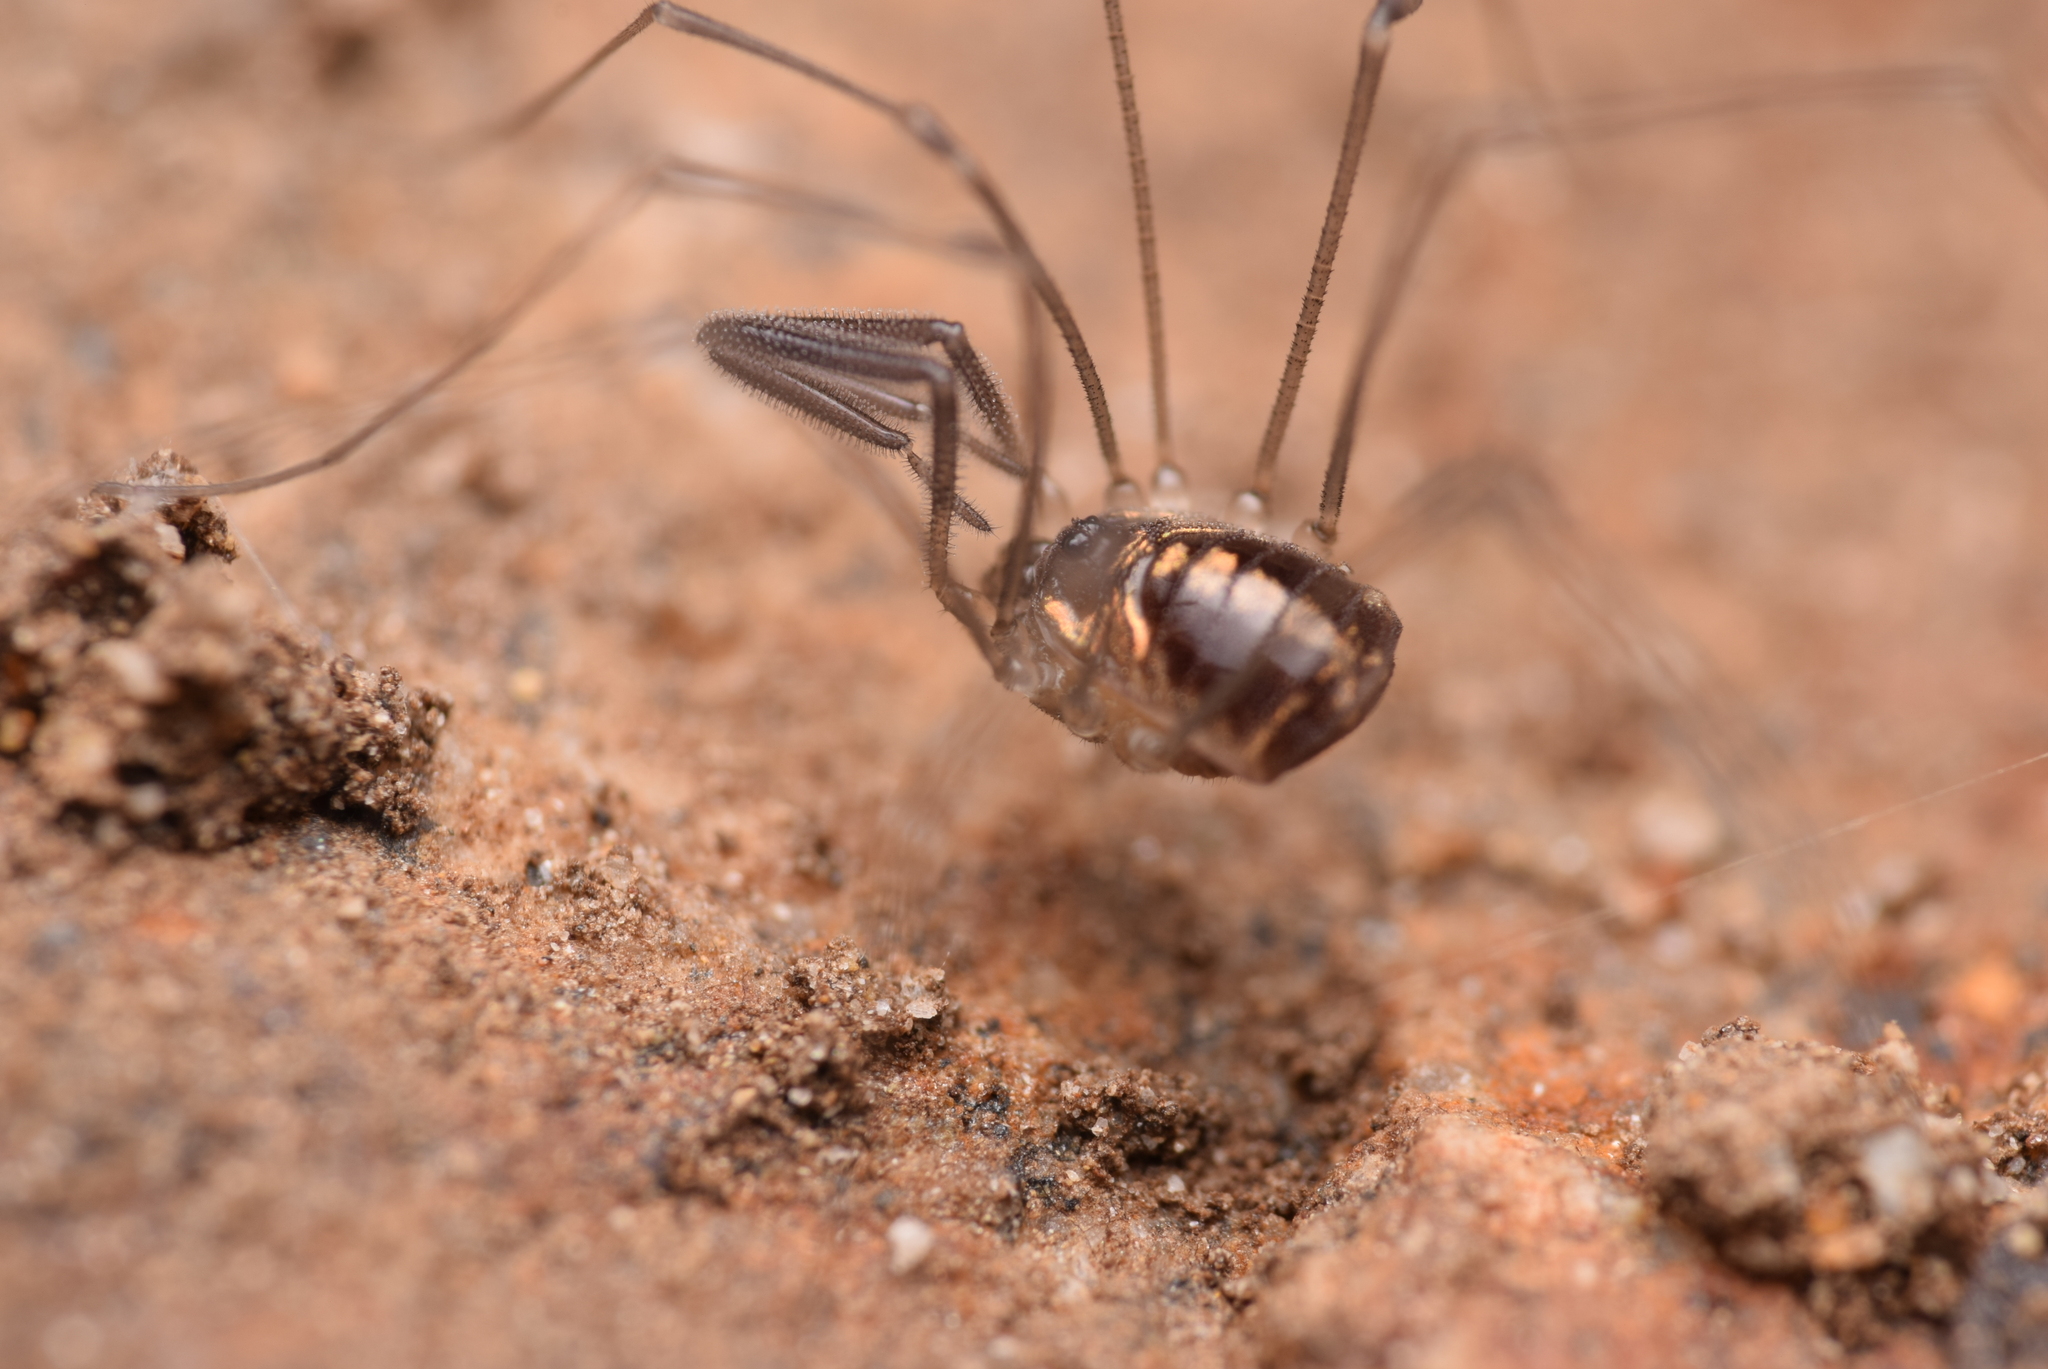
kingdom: Animalia
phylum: Arthropoda
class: Arachnida
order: Opiliones
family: Nemastomatidae
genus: Mitostoma
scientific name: Mitostoma pyrenaeum
